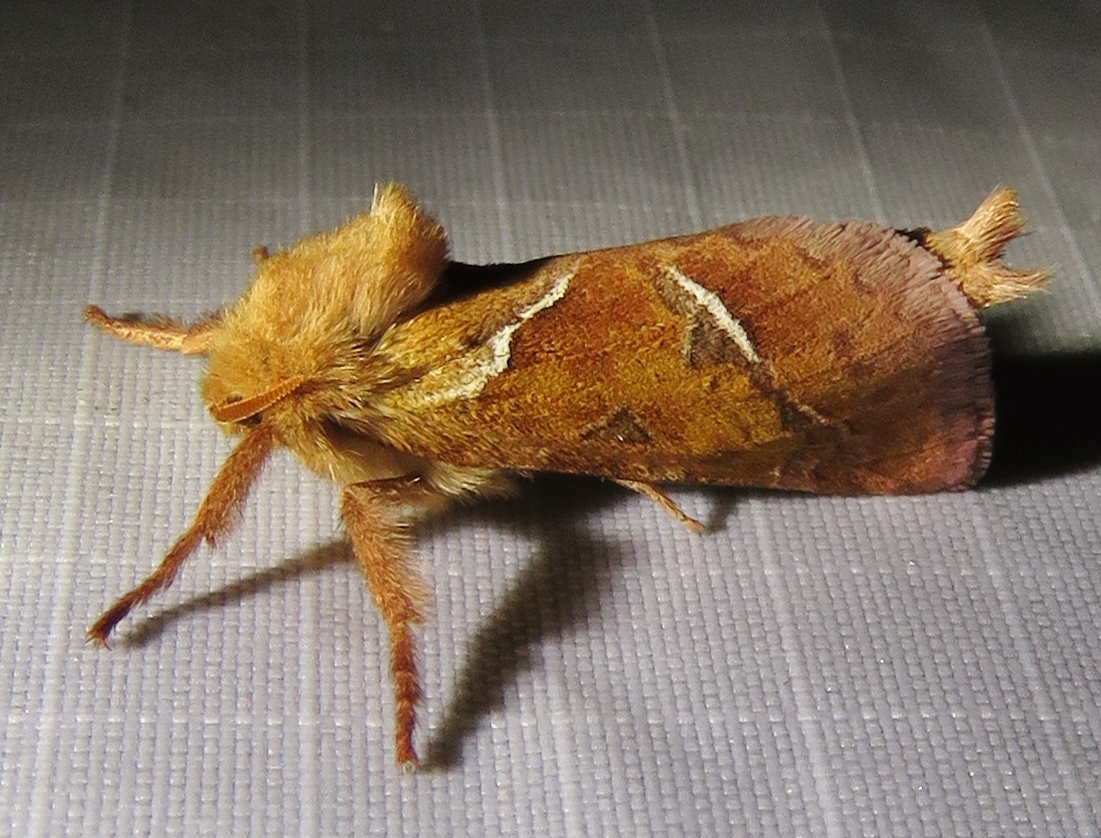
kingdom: Animalia
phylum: Arthropoda
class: Insecta
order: Lepidoptera
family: Hepialidae
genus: Triodia
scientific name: Triodia sylvina
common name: Orange swift
